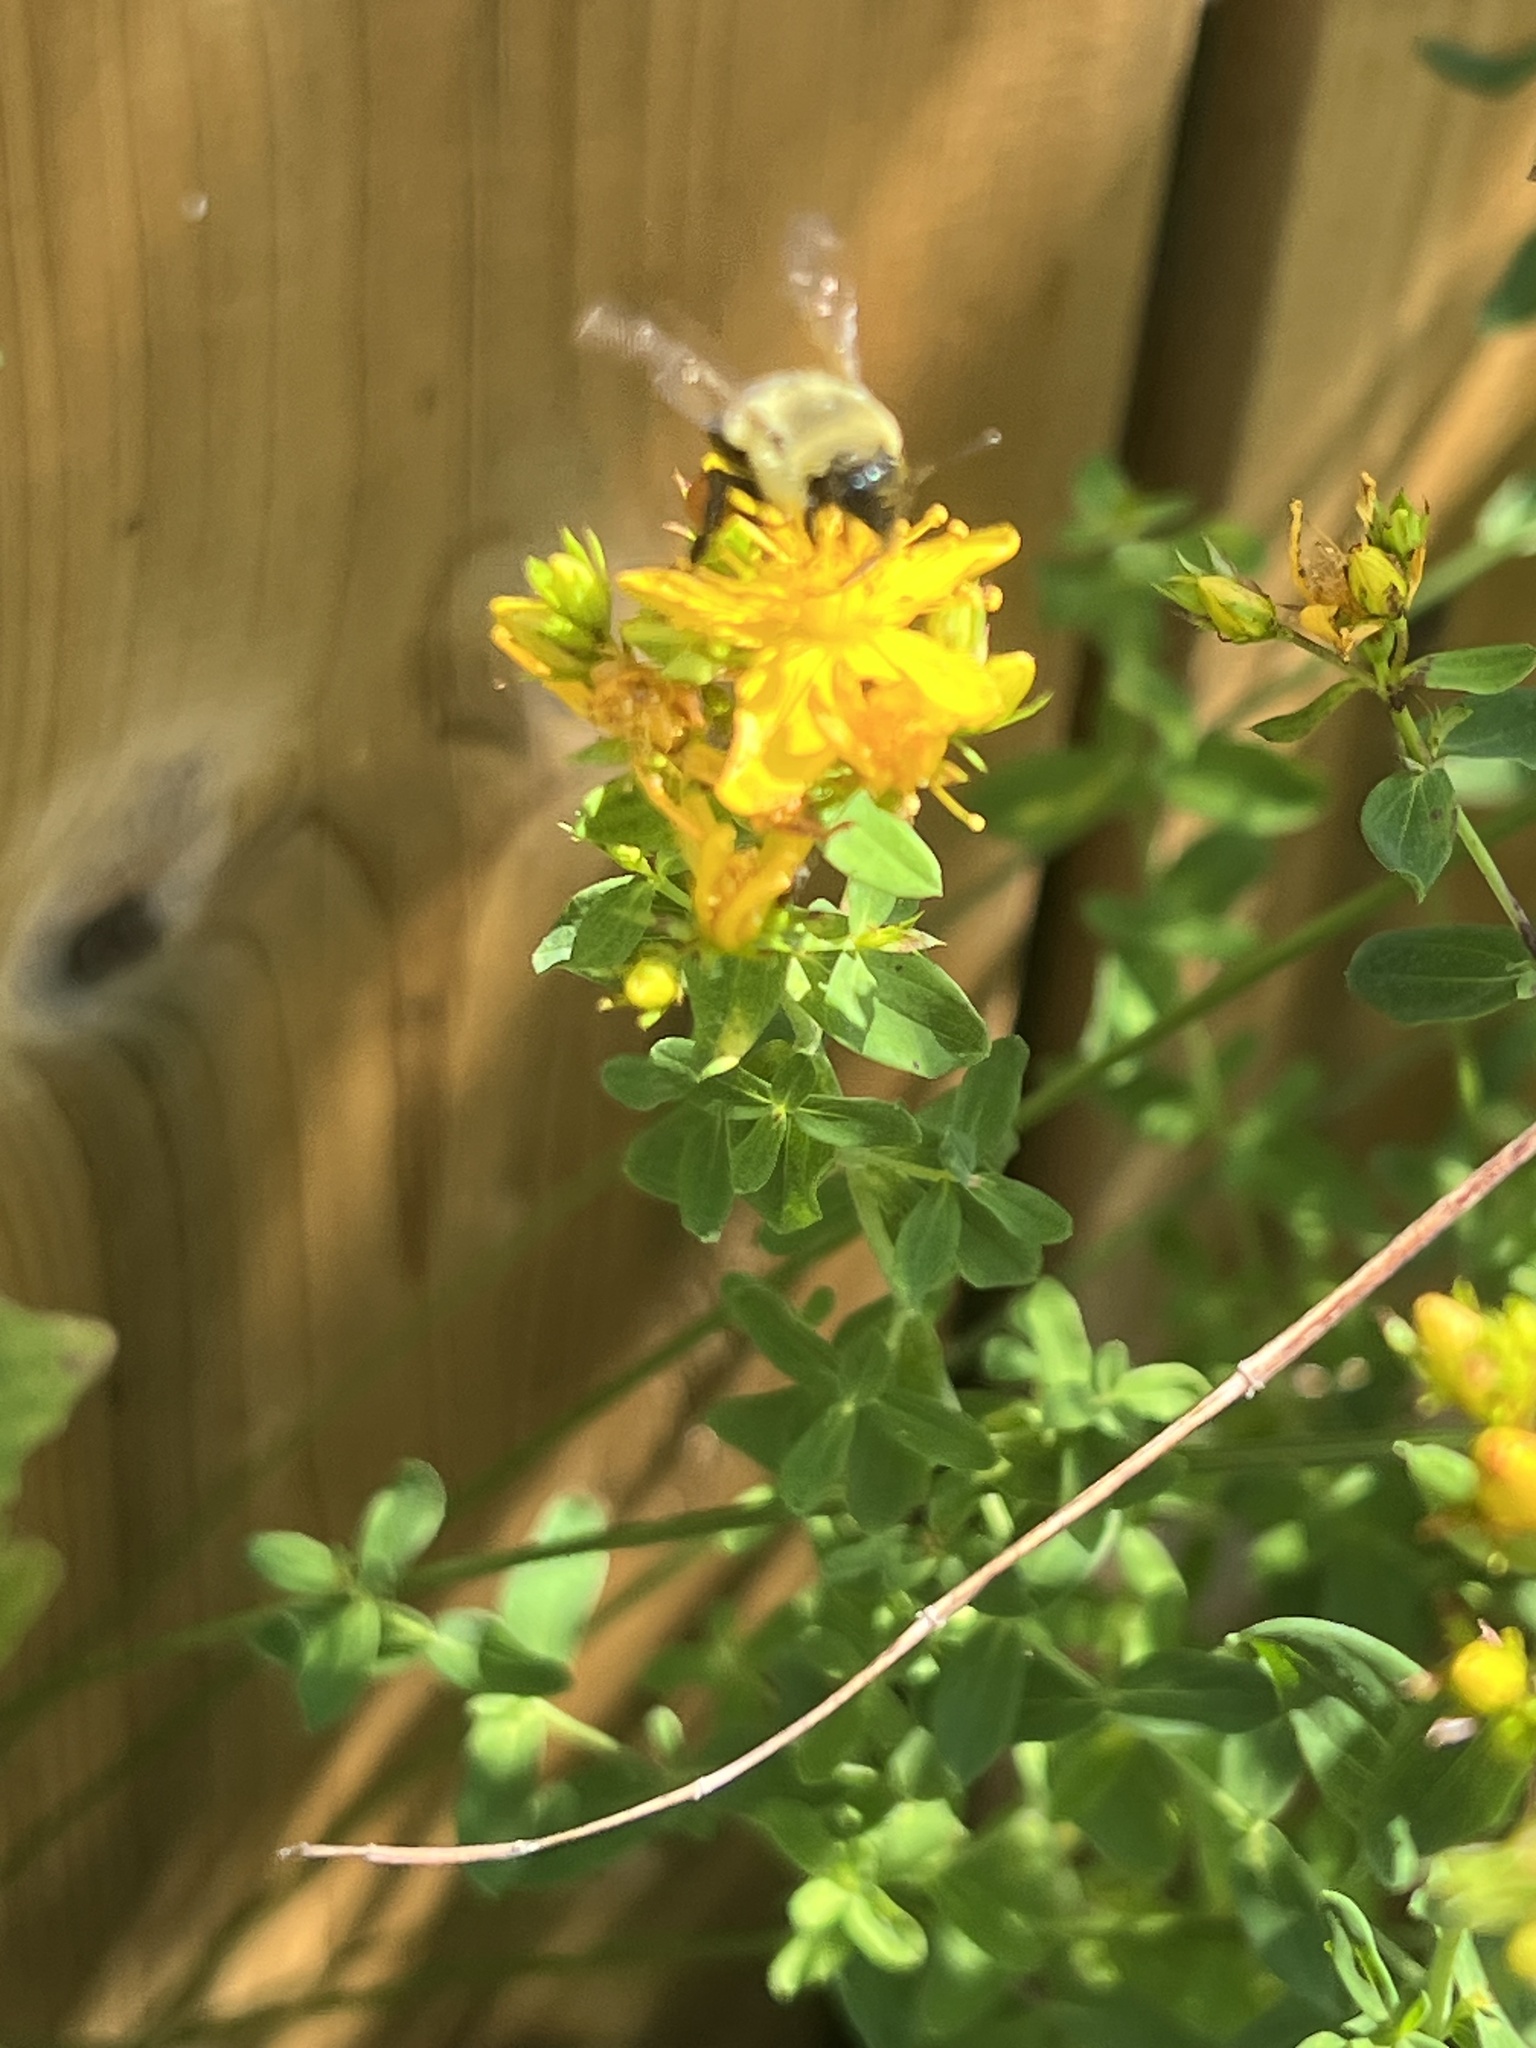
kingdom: Animalia
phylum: Arthropoda
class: Insecta
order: Hymenoptera
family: Apidae
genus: Bombus
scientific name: Bombus impatiens
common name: Common eastern bumble bee
